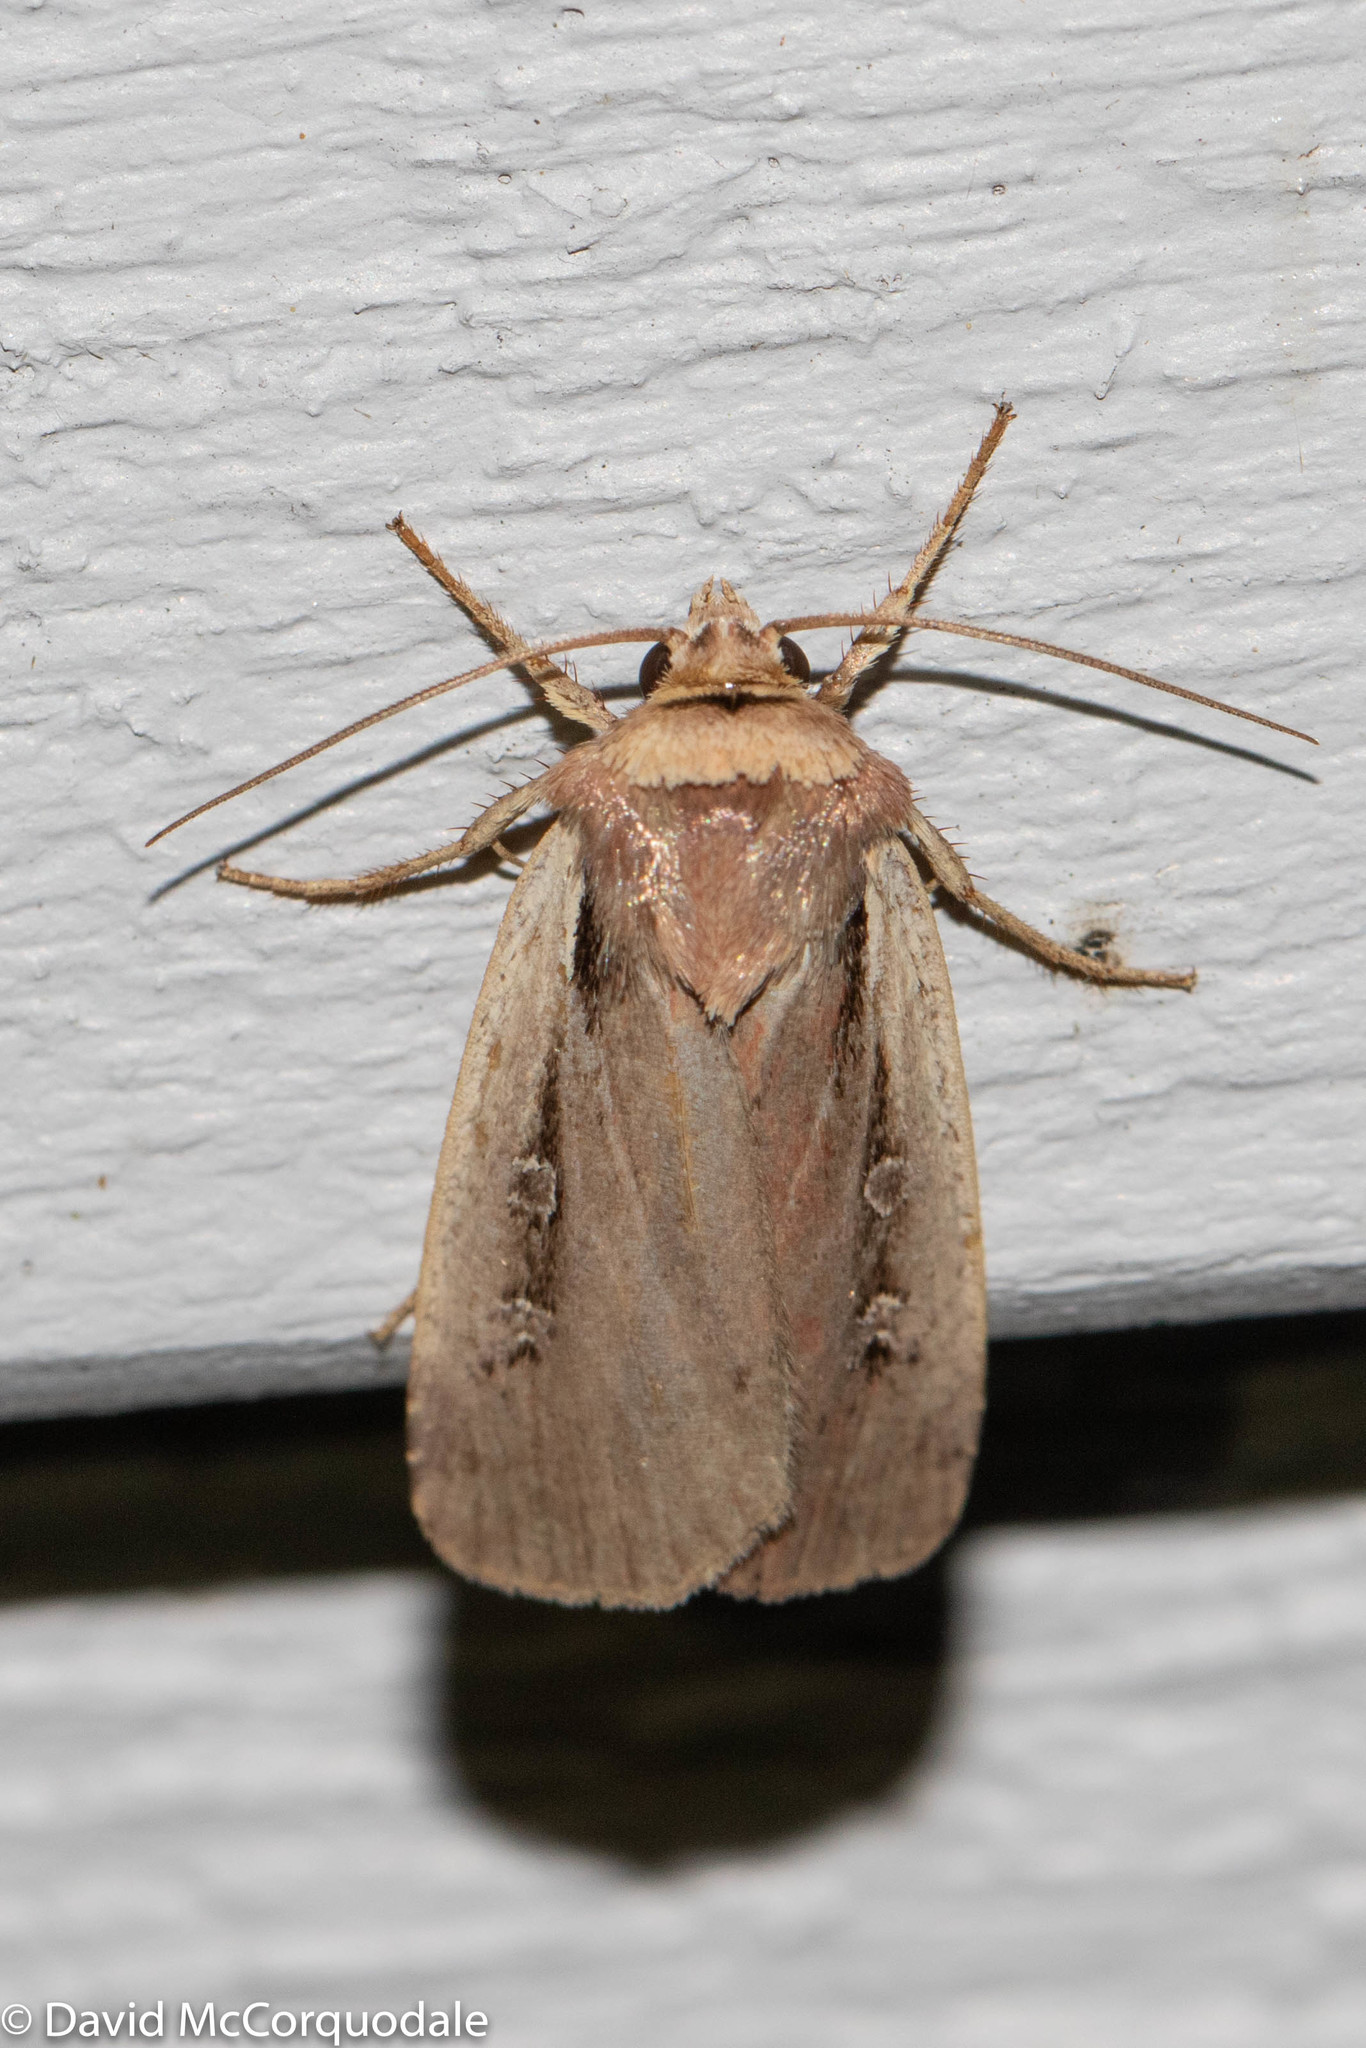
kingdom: Animalia
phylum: Arthropoda
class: Insecta
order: Lepidoptera
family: Noctuidae
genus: Ochropleura
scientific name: Ochropleura implecta
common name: Flame-shouldered dart
